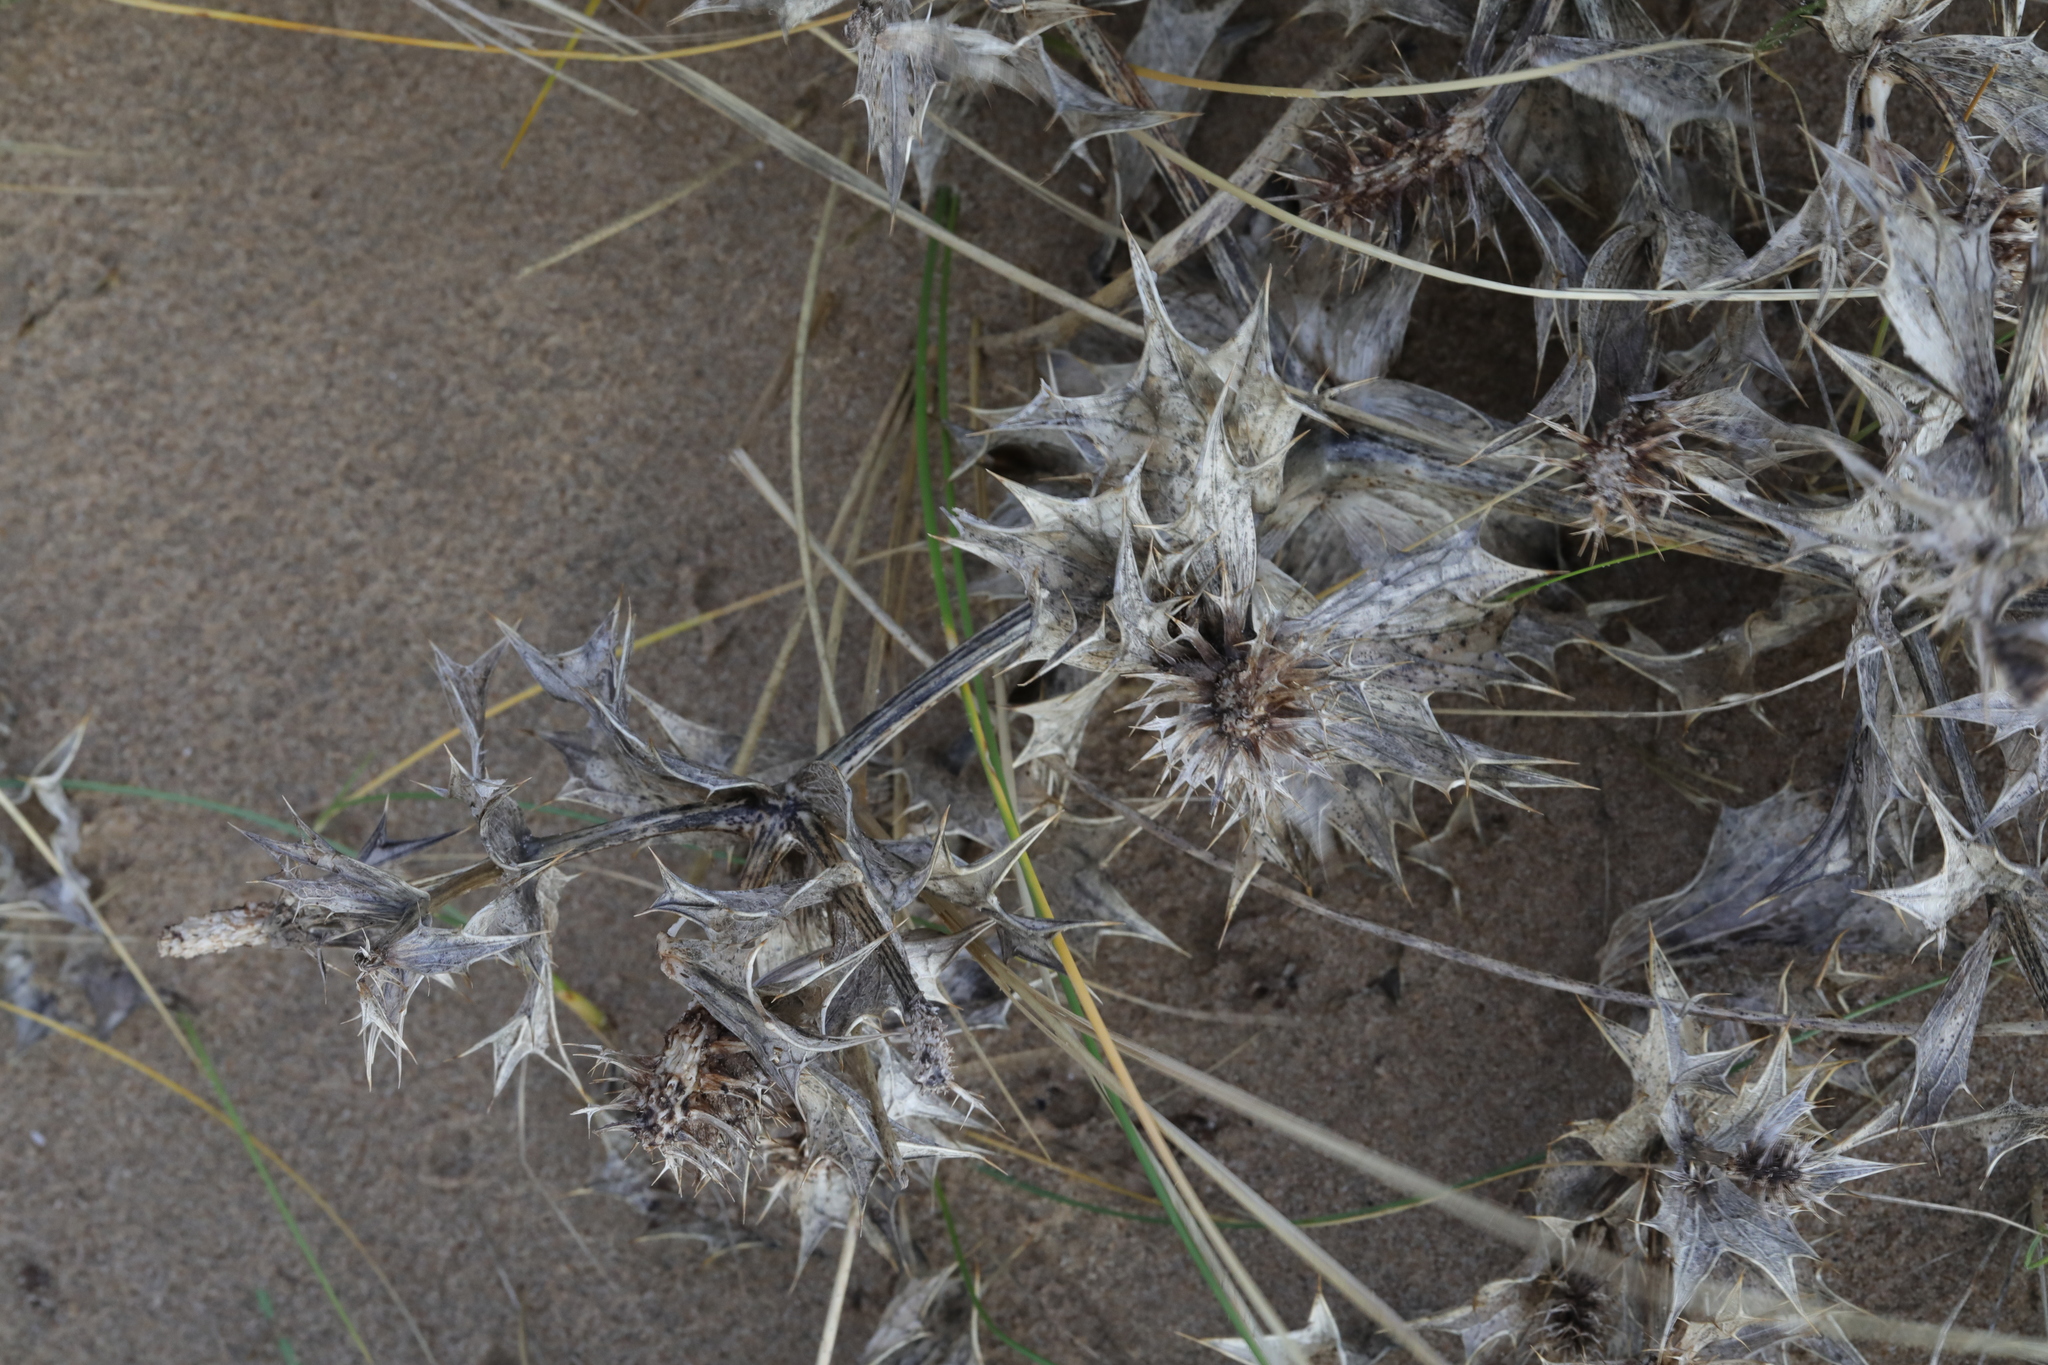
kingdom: Plantae
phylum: Tracheophyta
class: Magnoliopsida
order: Apiales
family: Apiaceae
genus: Eryngium
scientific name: Eryngium maritimum
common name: Sea-holly
